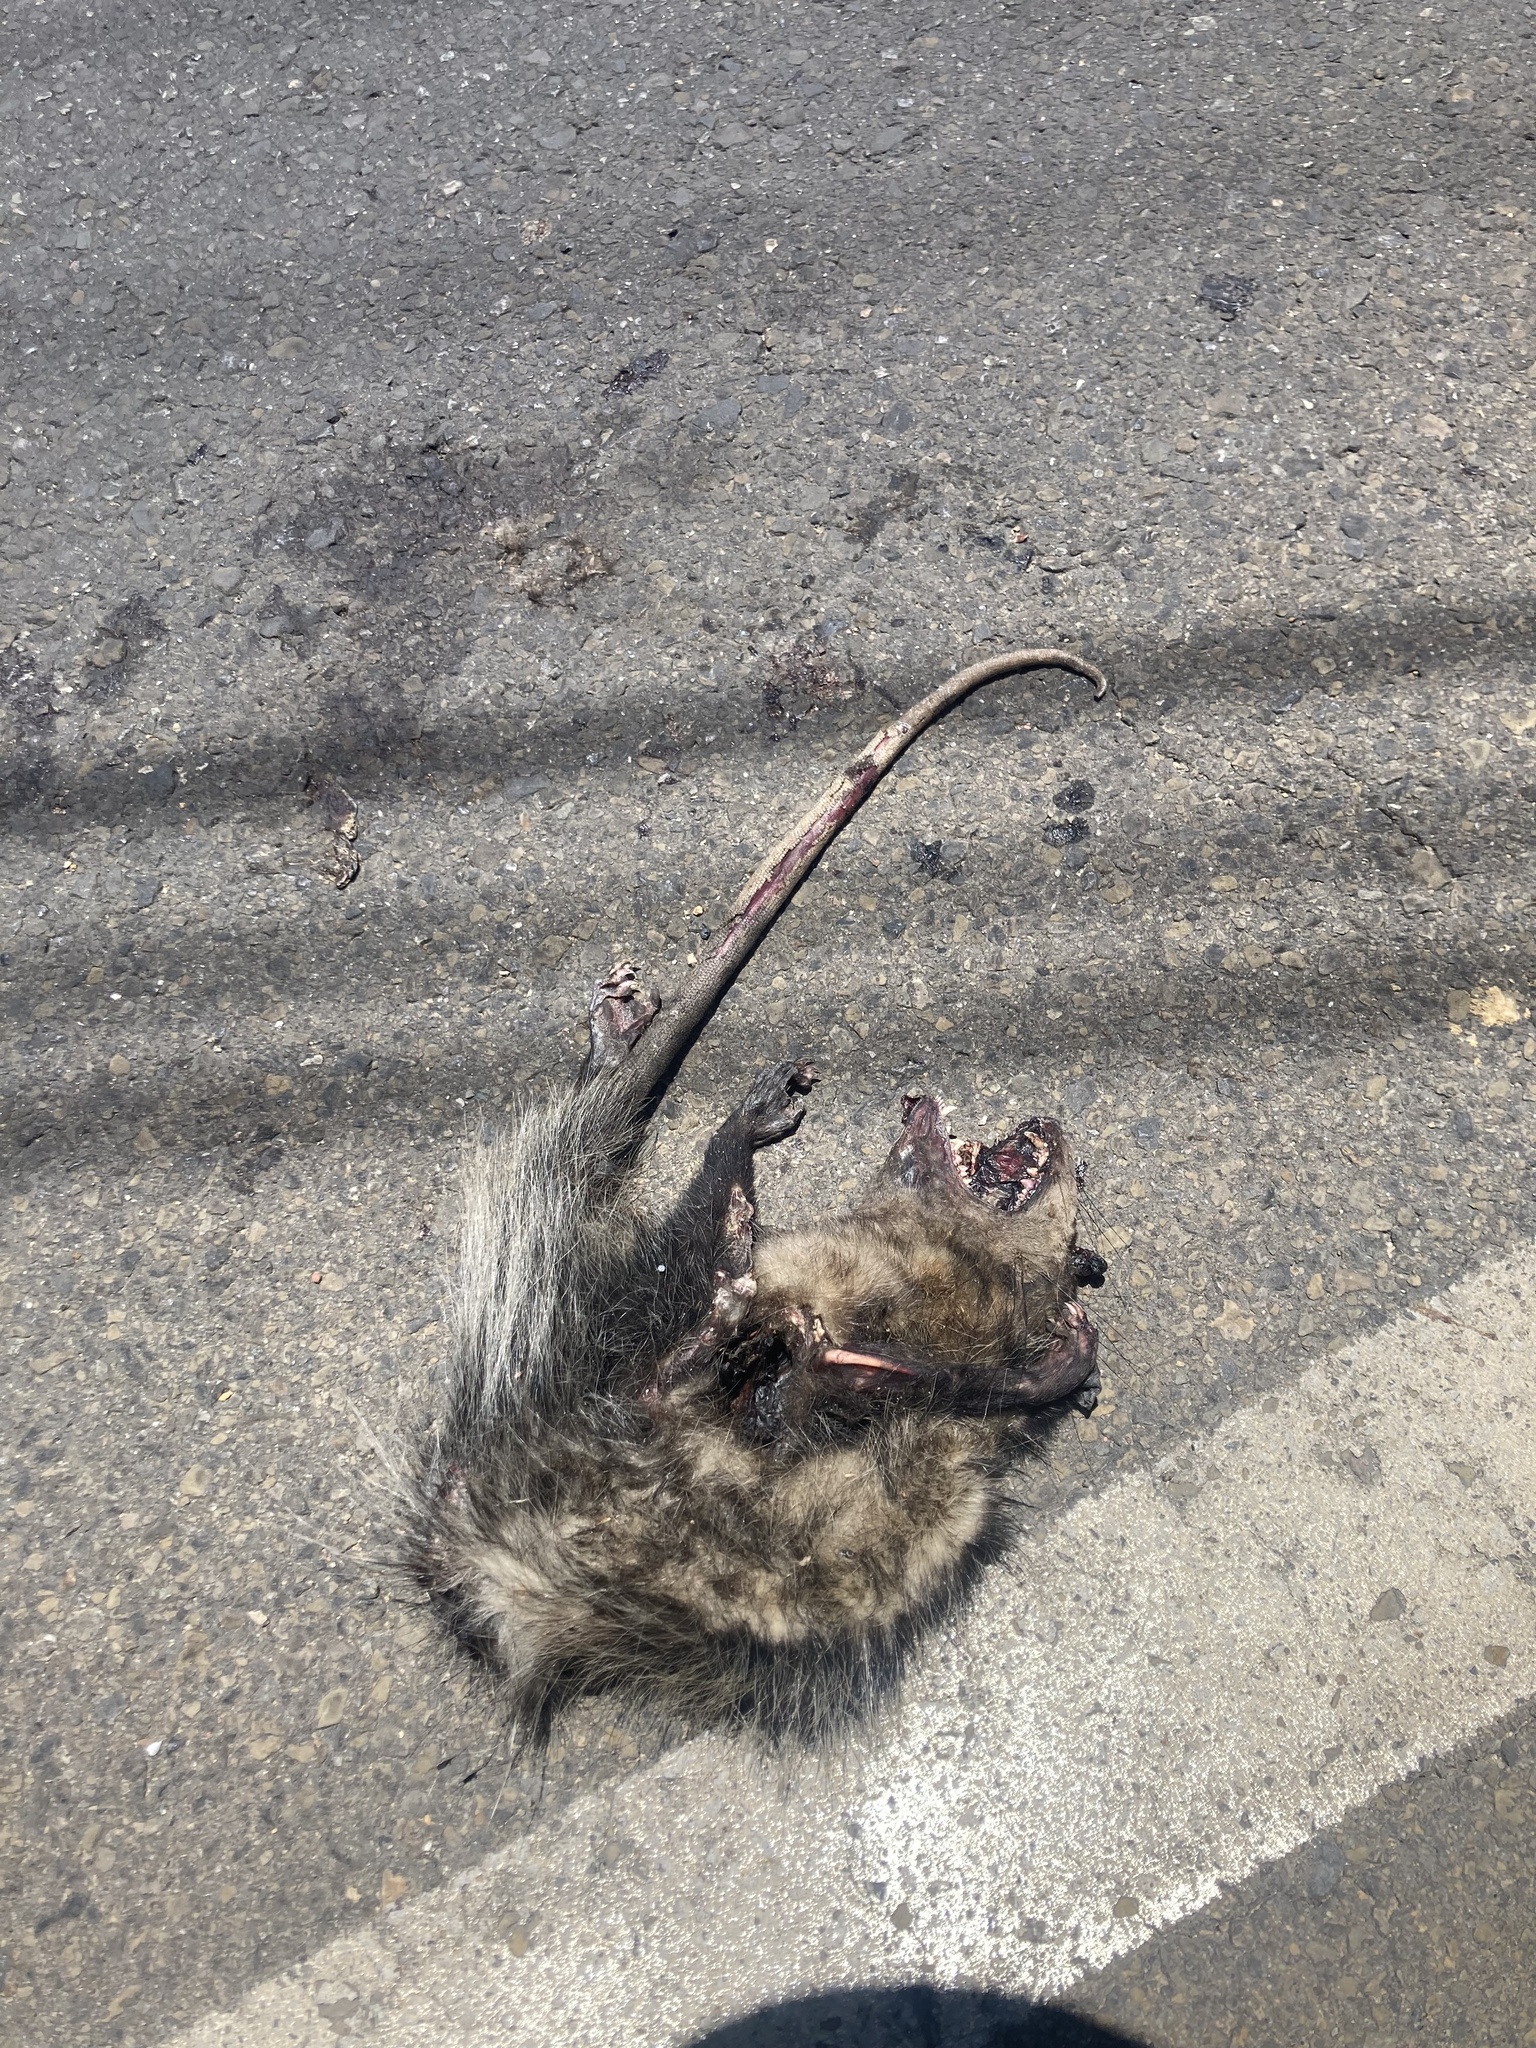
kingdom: Animalia
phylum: Chordata
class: Mammalia
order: Didelphimorphia
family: Didelphidae
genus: Didelphis
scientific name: Didelphis marsupialis
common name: Common opossum
